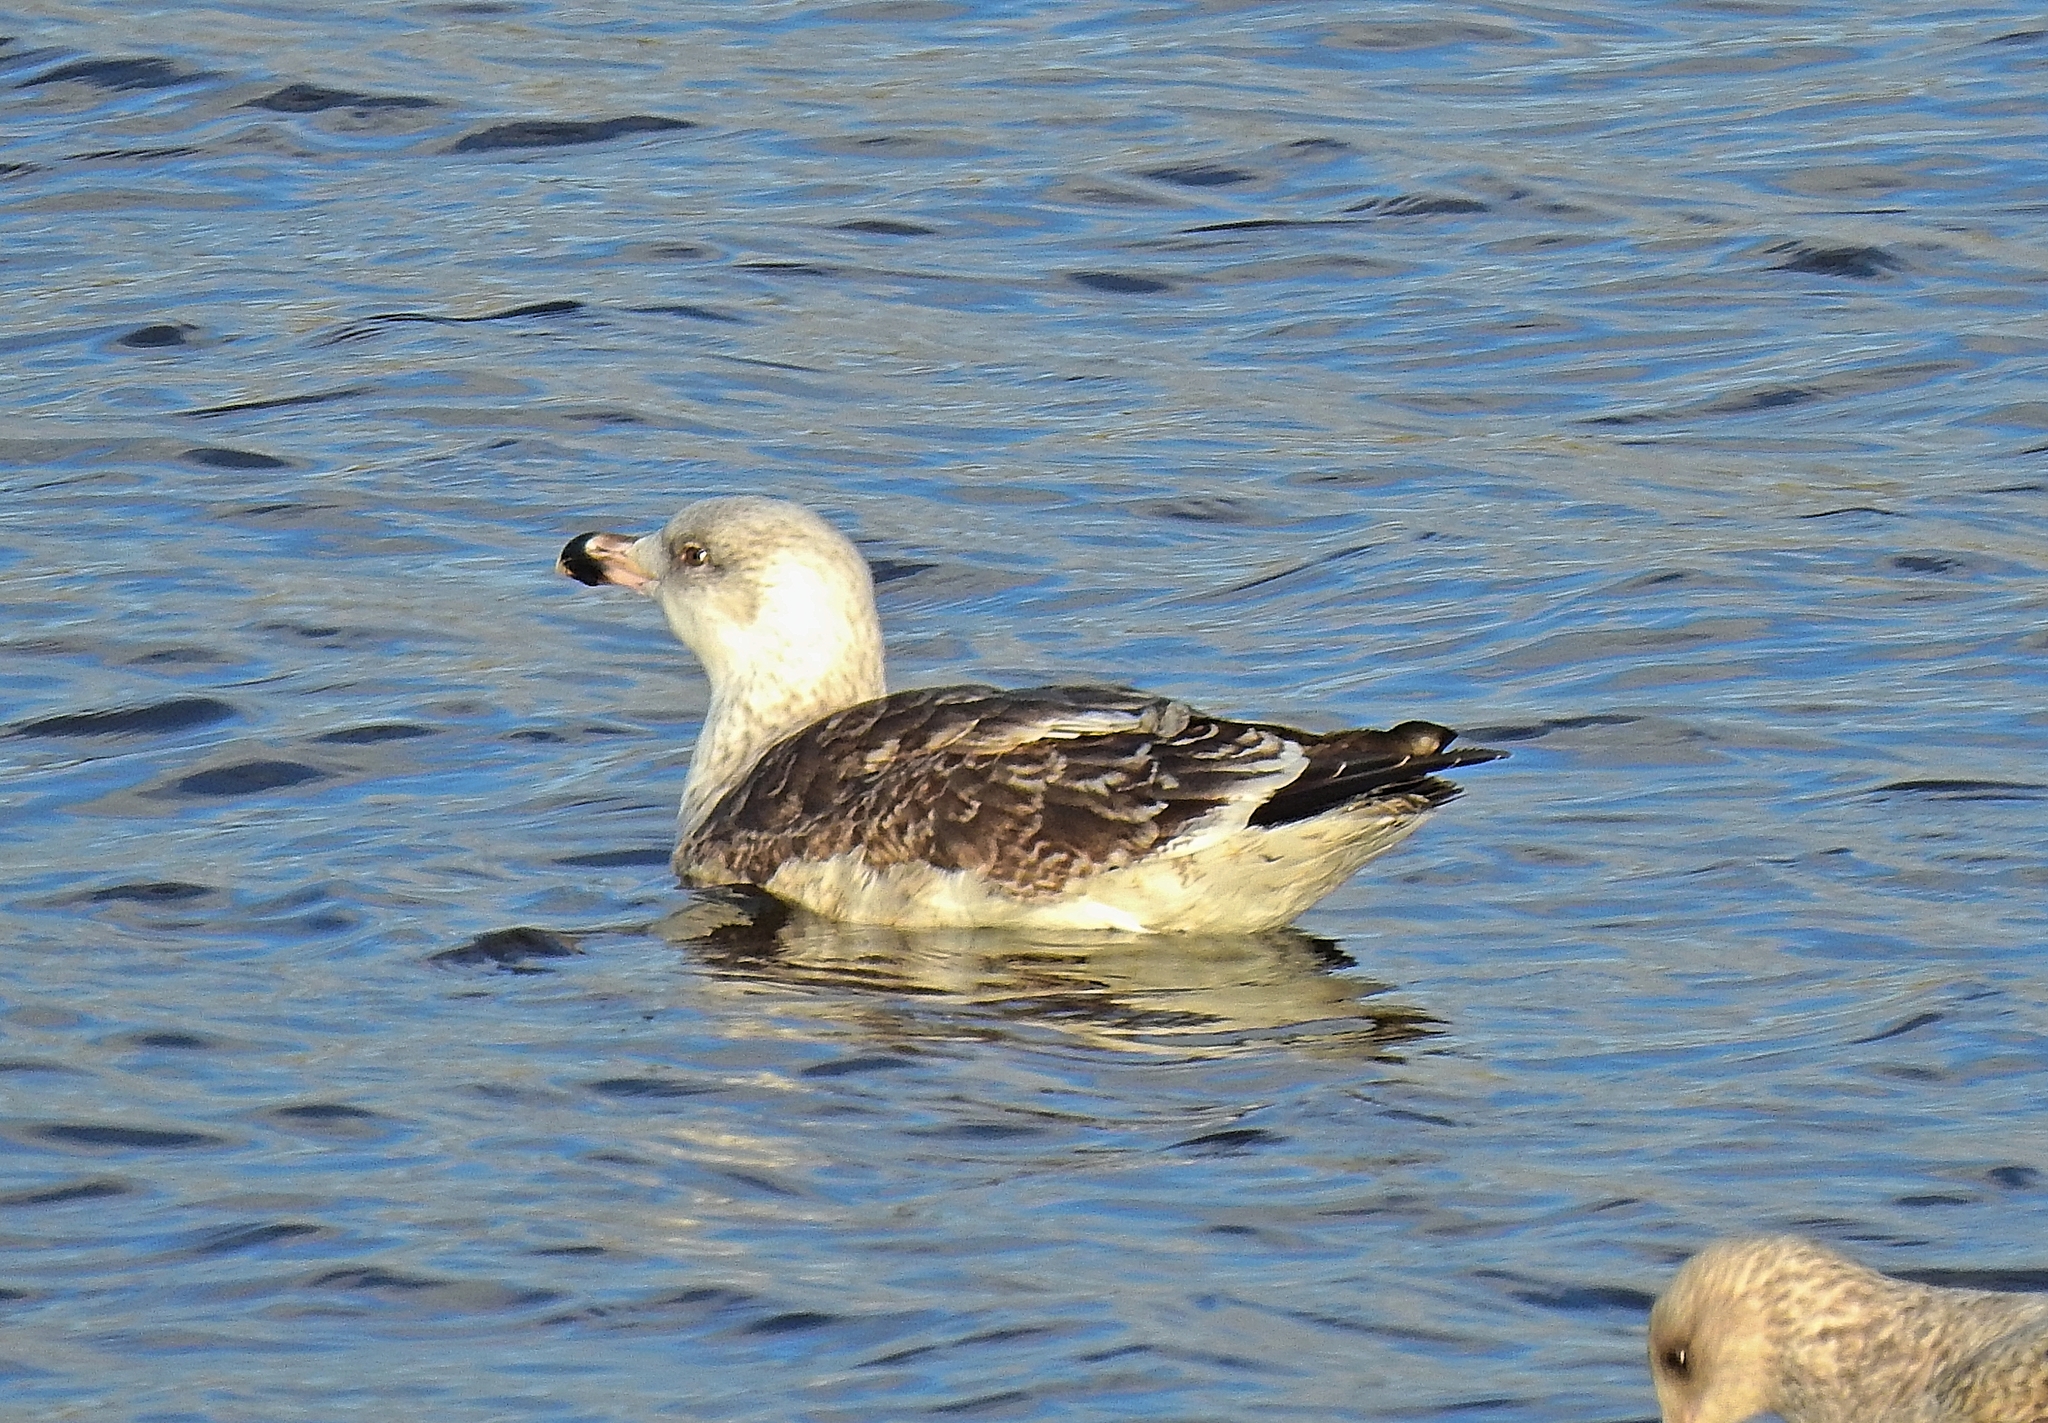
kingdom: Animalia
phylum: Chordata
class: Aves
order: Charadriiformes
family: Laridae
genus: Larus
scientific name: Larus marinus
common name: Great black-backed gull
